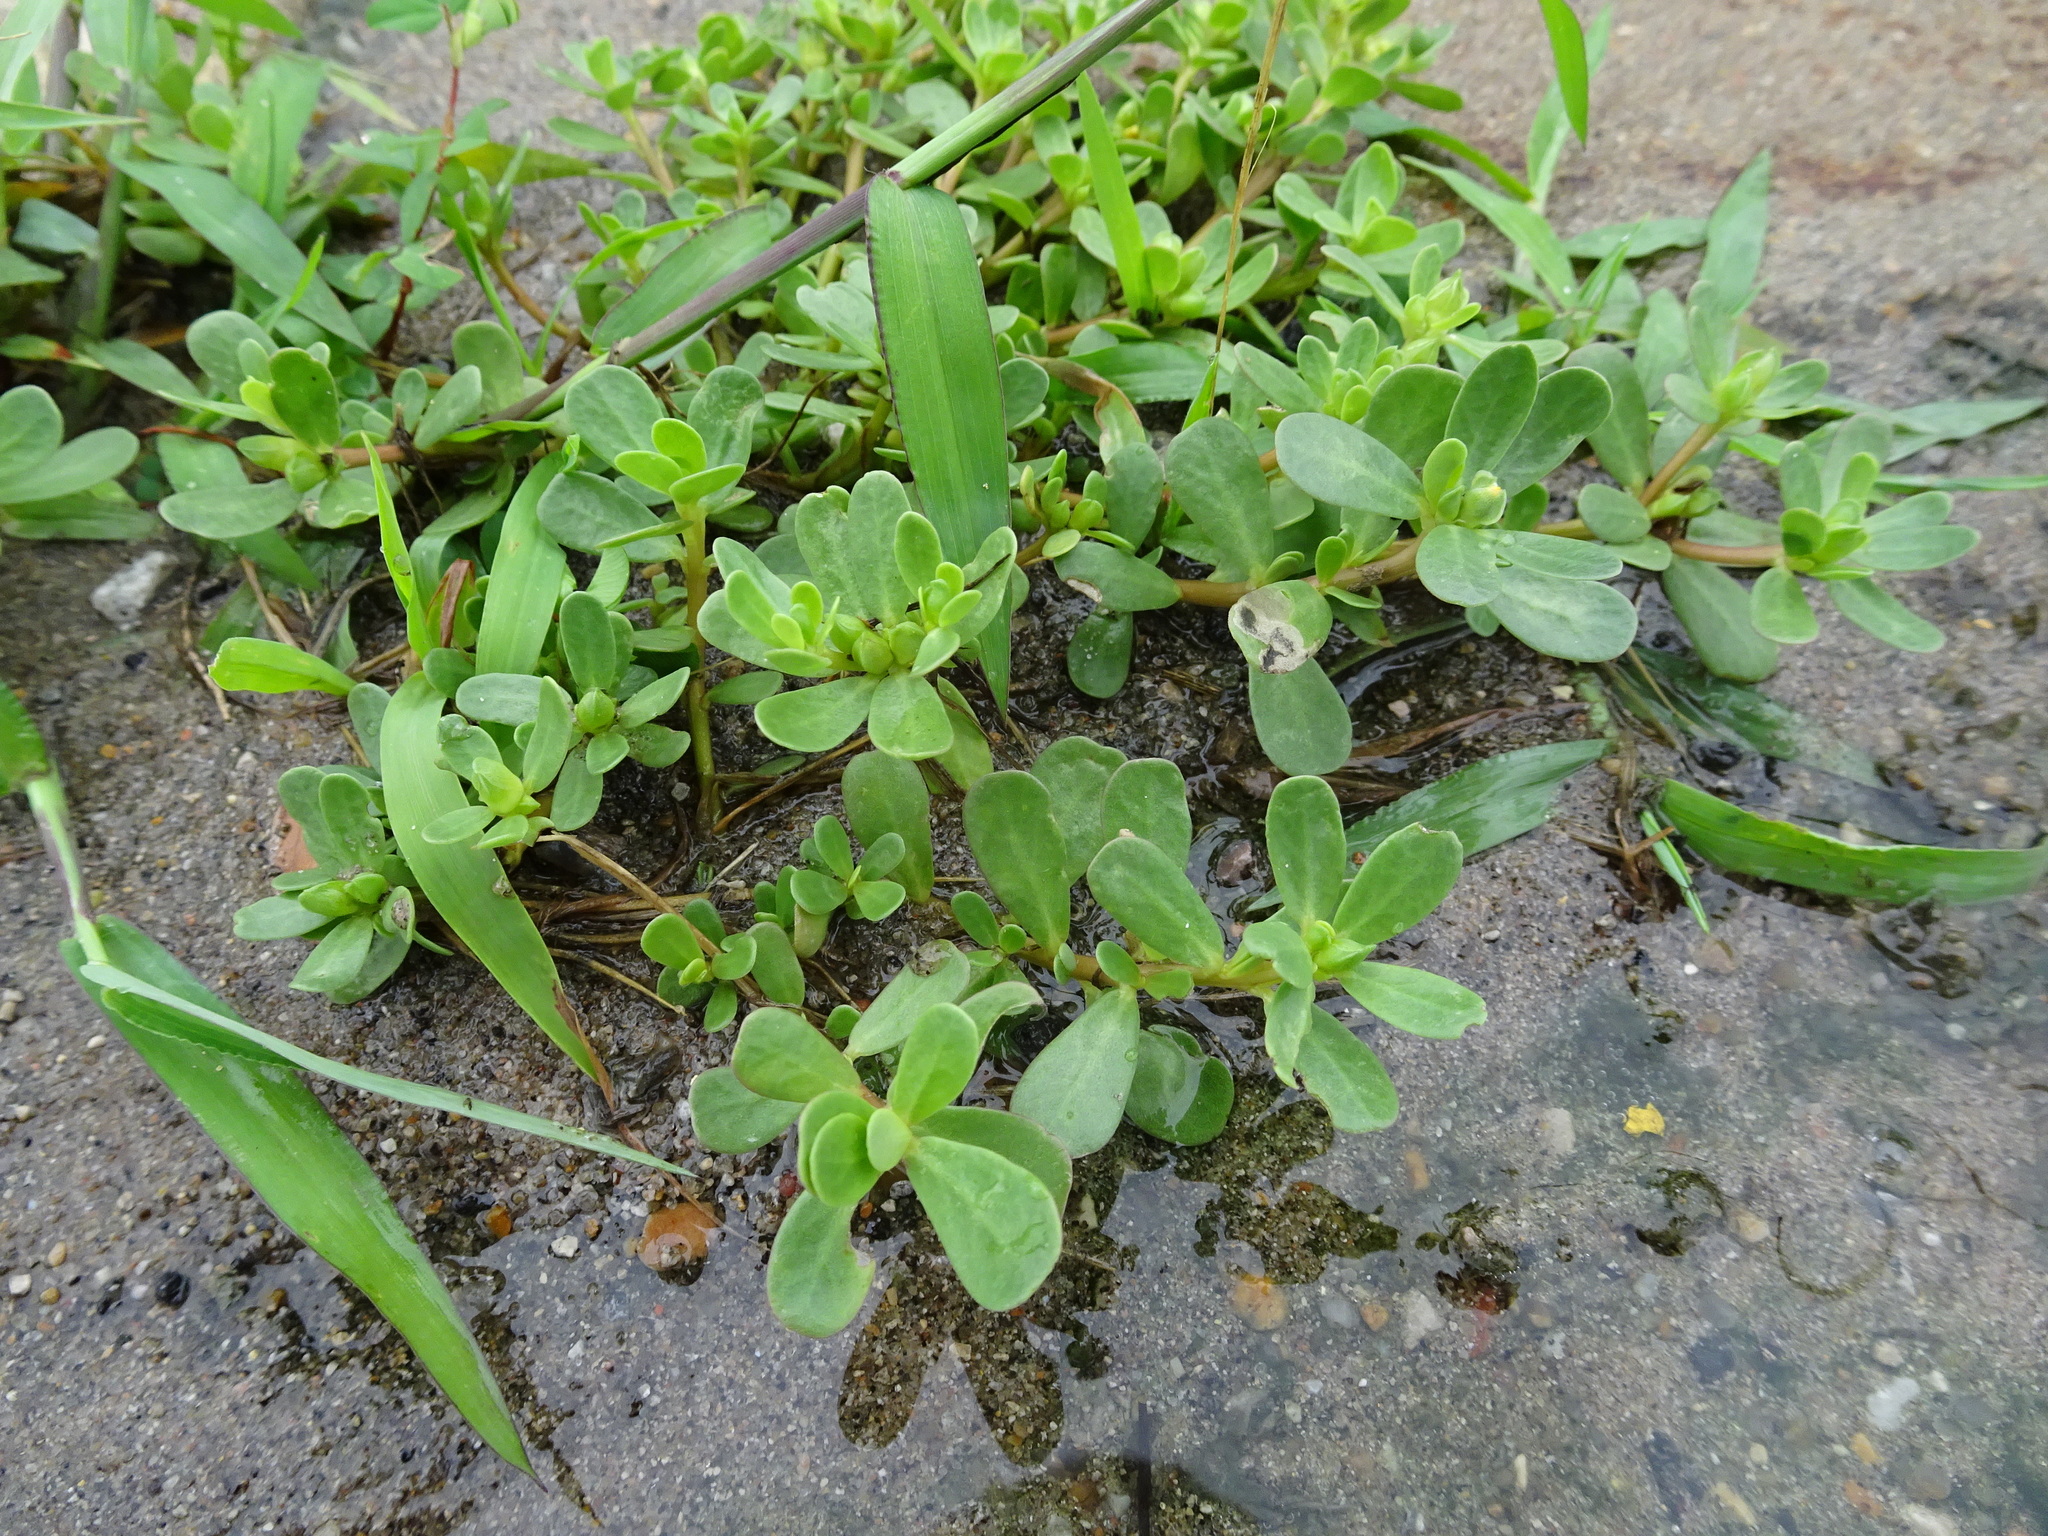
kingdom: Plantae
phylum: Tracheophyta
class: Magnoliopsida
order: Caryophyllales
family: Portulacaceae
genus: Portulaca
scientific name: Portulaca oleracea
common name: Common purslane
